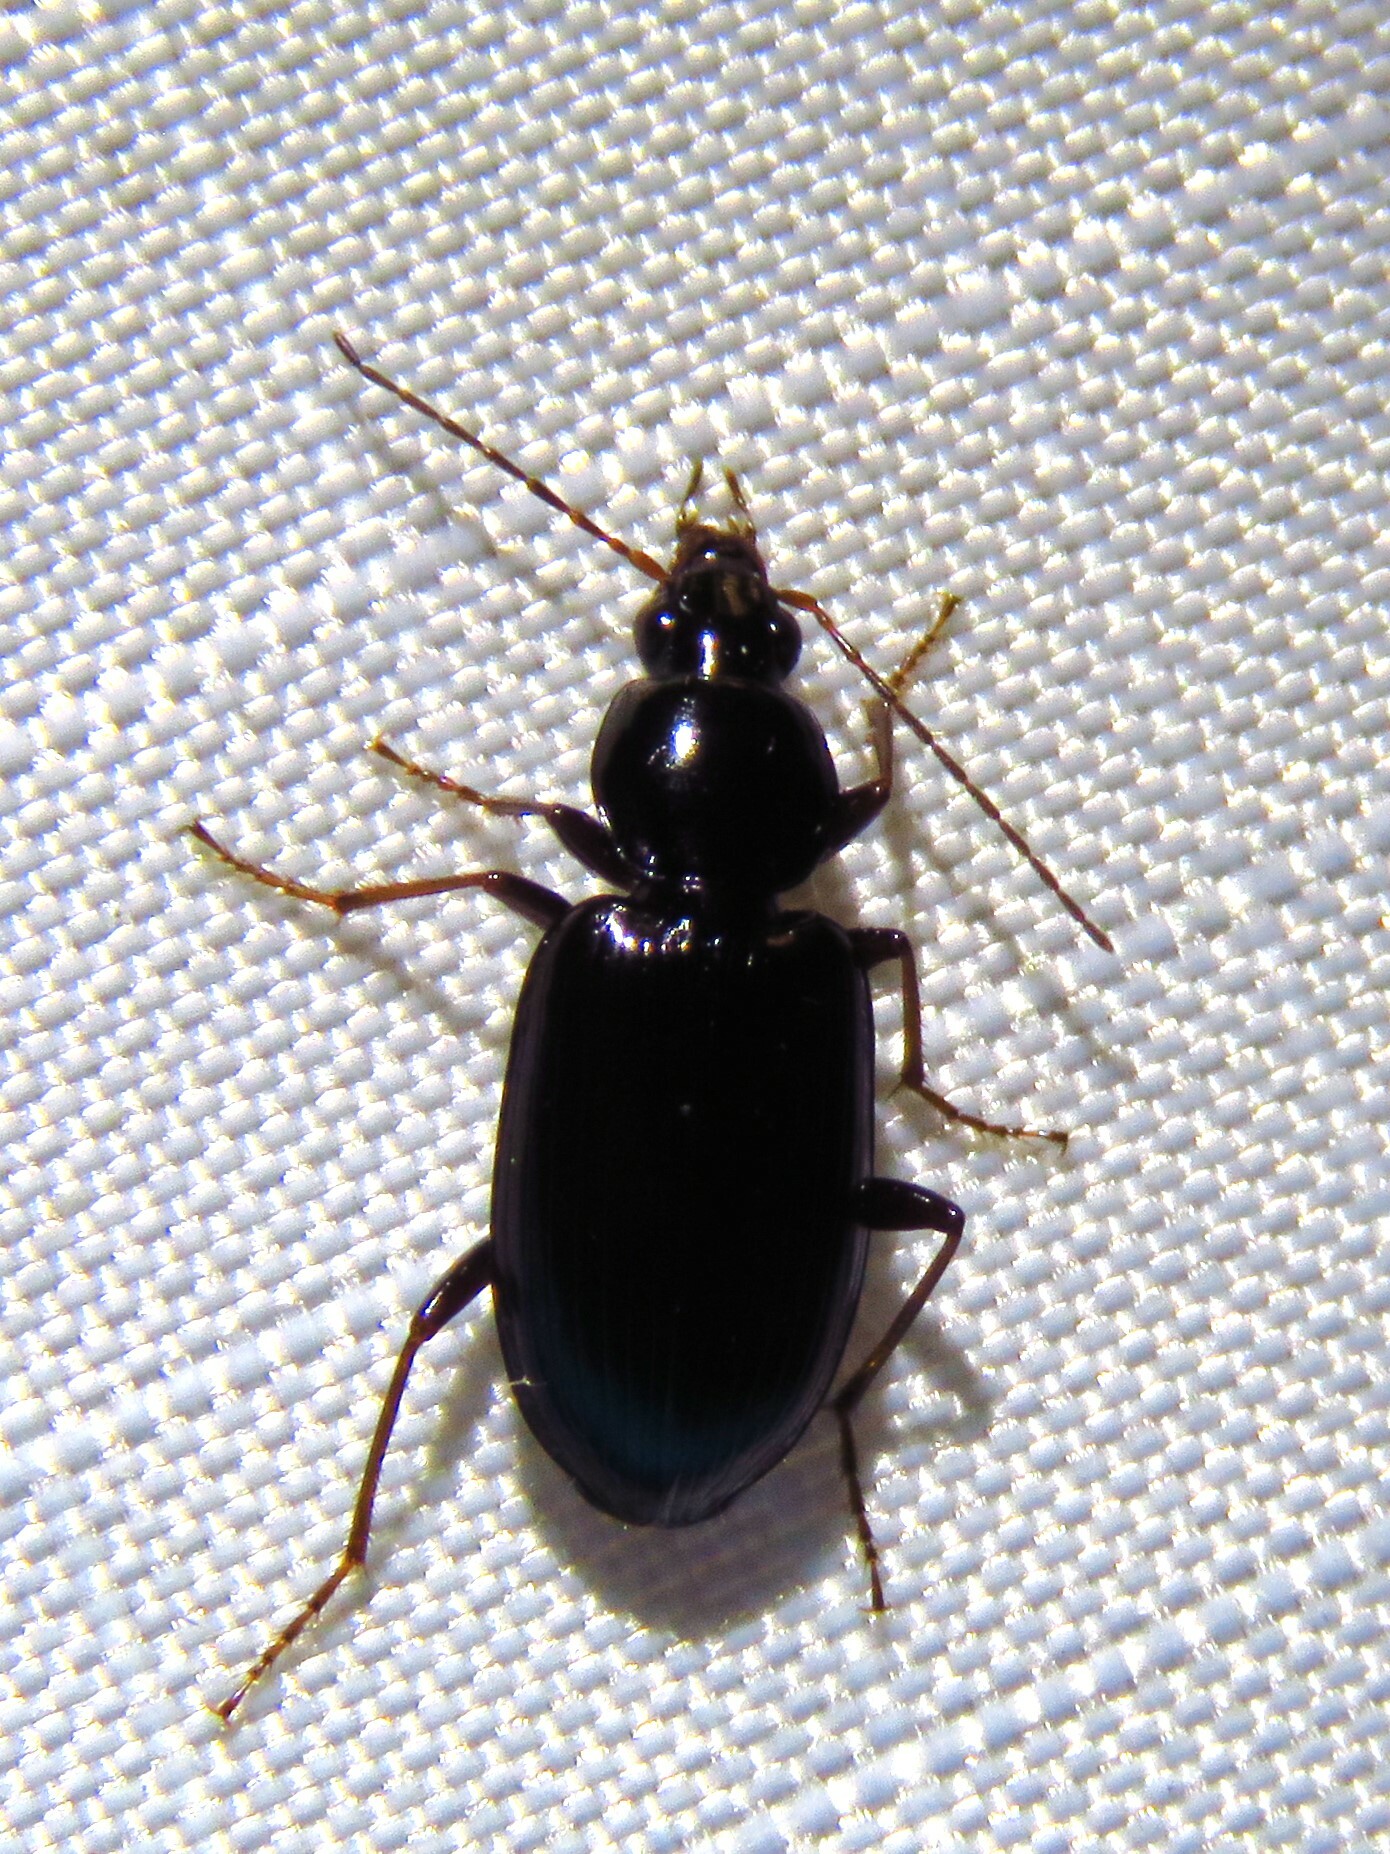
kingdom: Animalia
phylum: Arthropoda
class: Insecta
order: Coleoptera
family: Carabidae
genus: Agonum
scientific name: Agonum punctiforme
